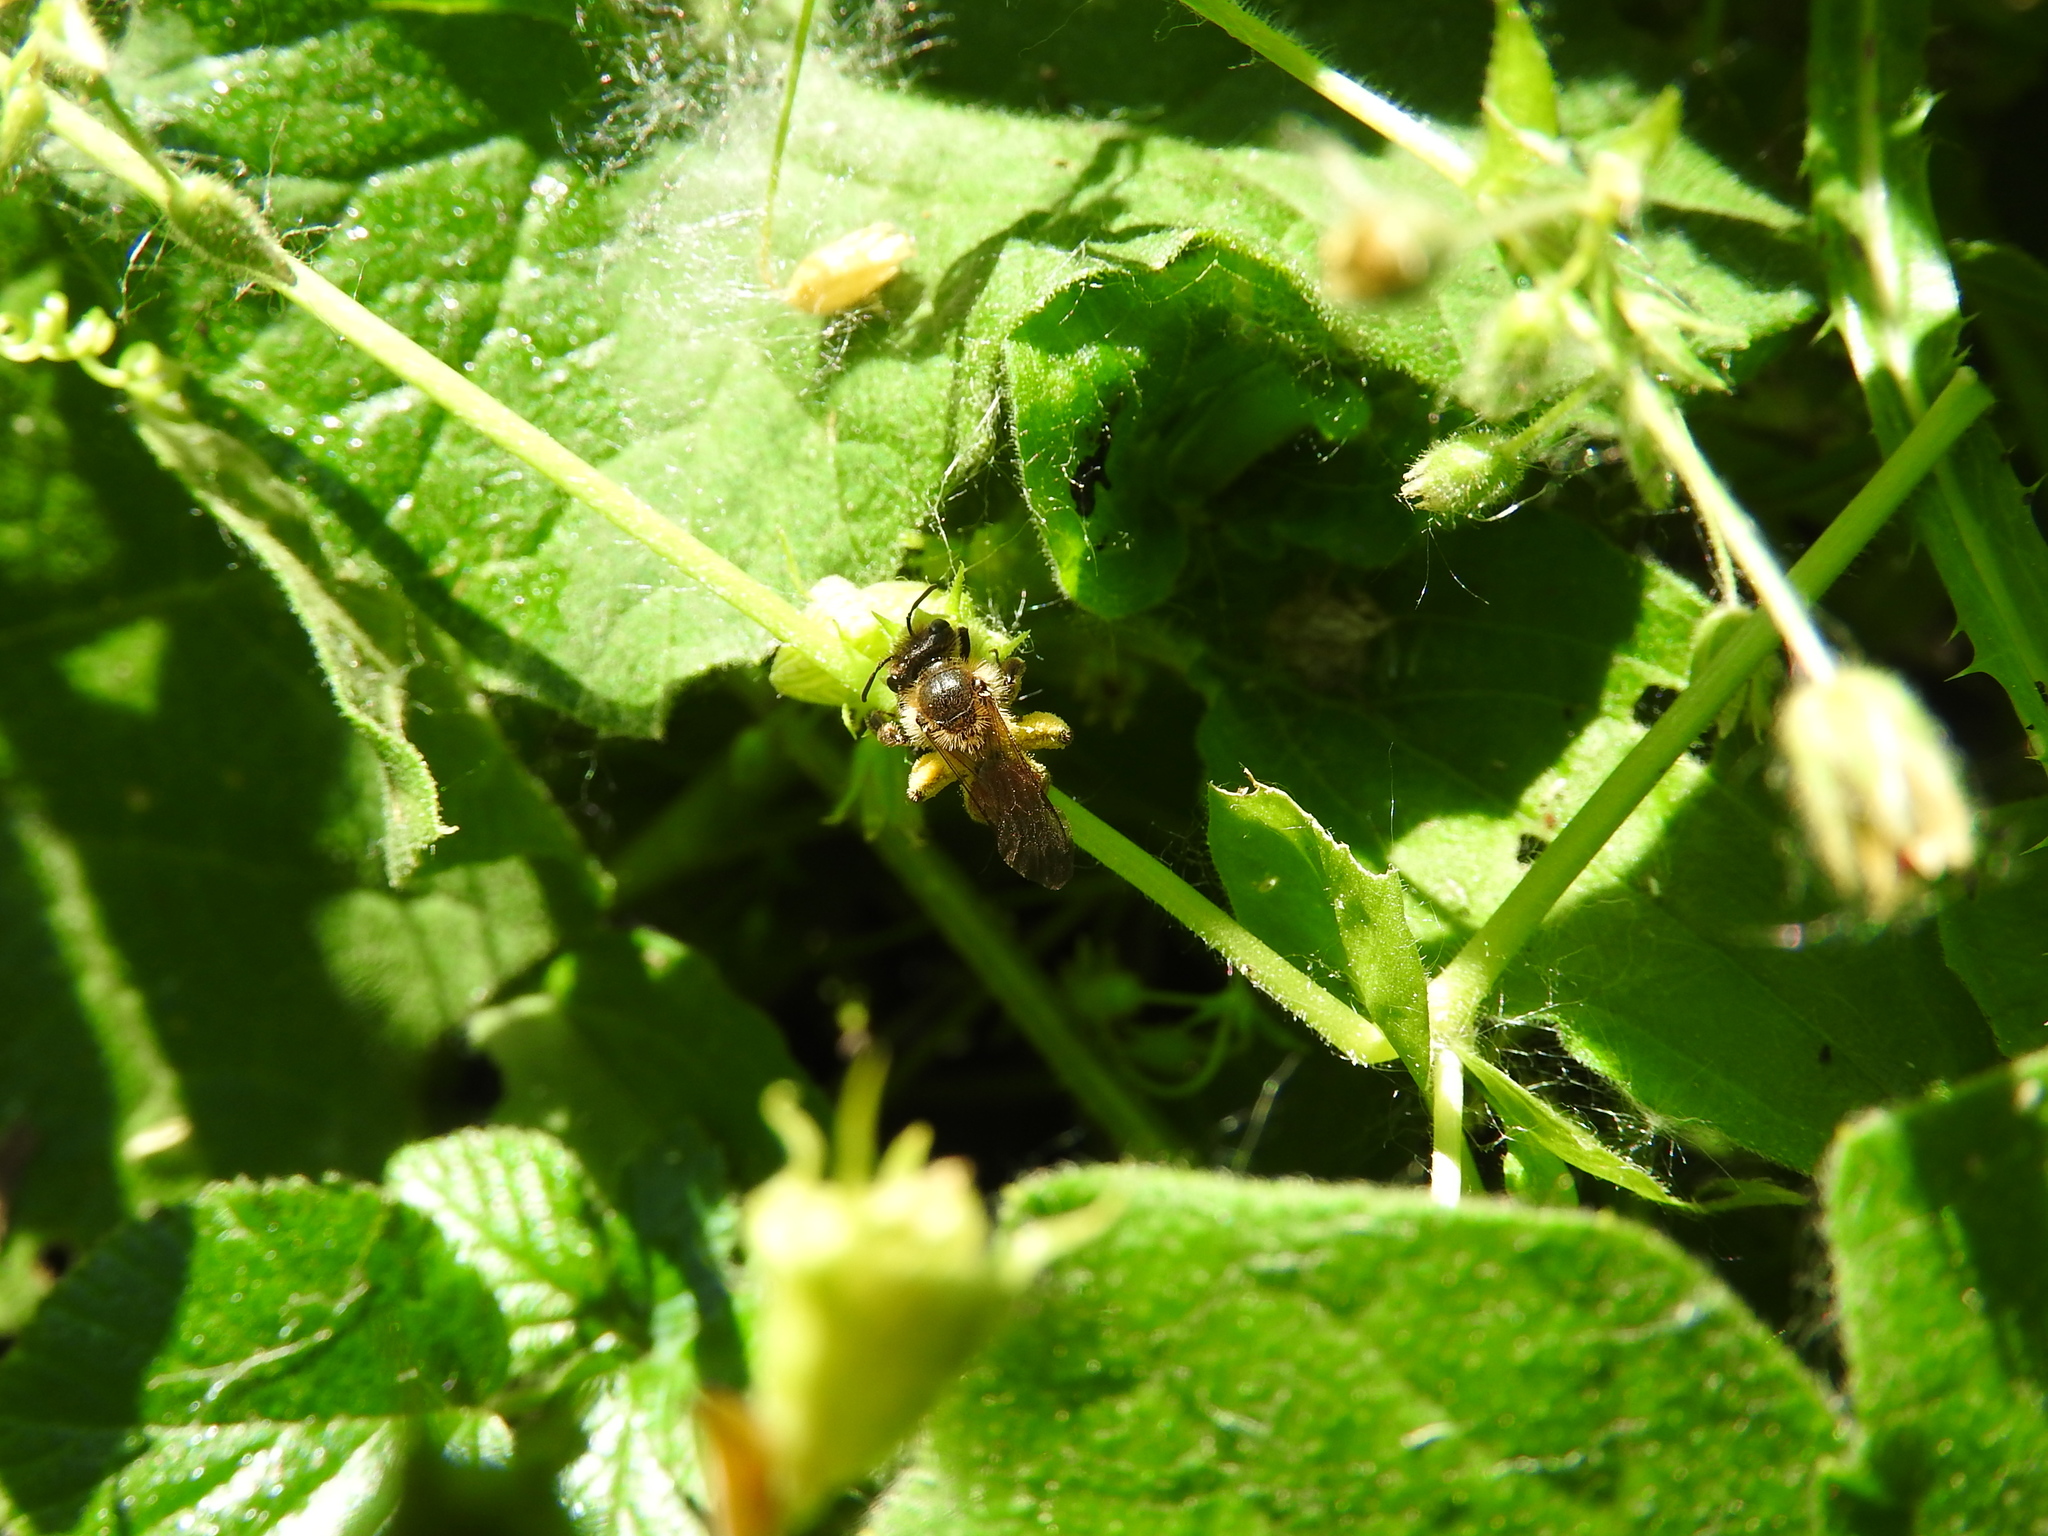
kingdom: Animalia
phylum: Arthropoda
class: Insecta
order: Hymenoptera
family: Andrenidae
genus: Andrena
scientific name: Andrena florea
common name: Bryony mining bee
